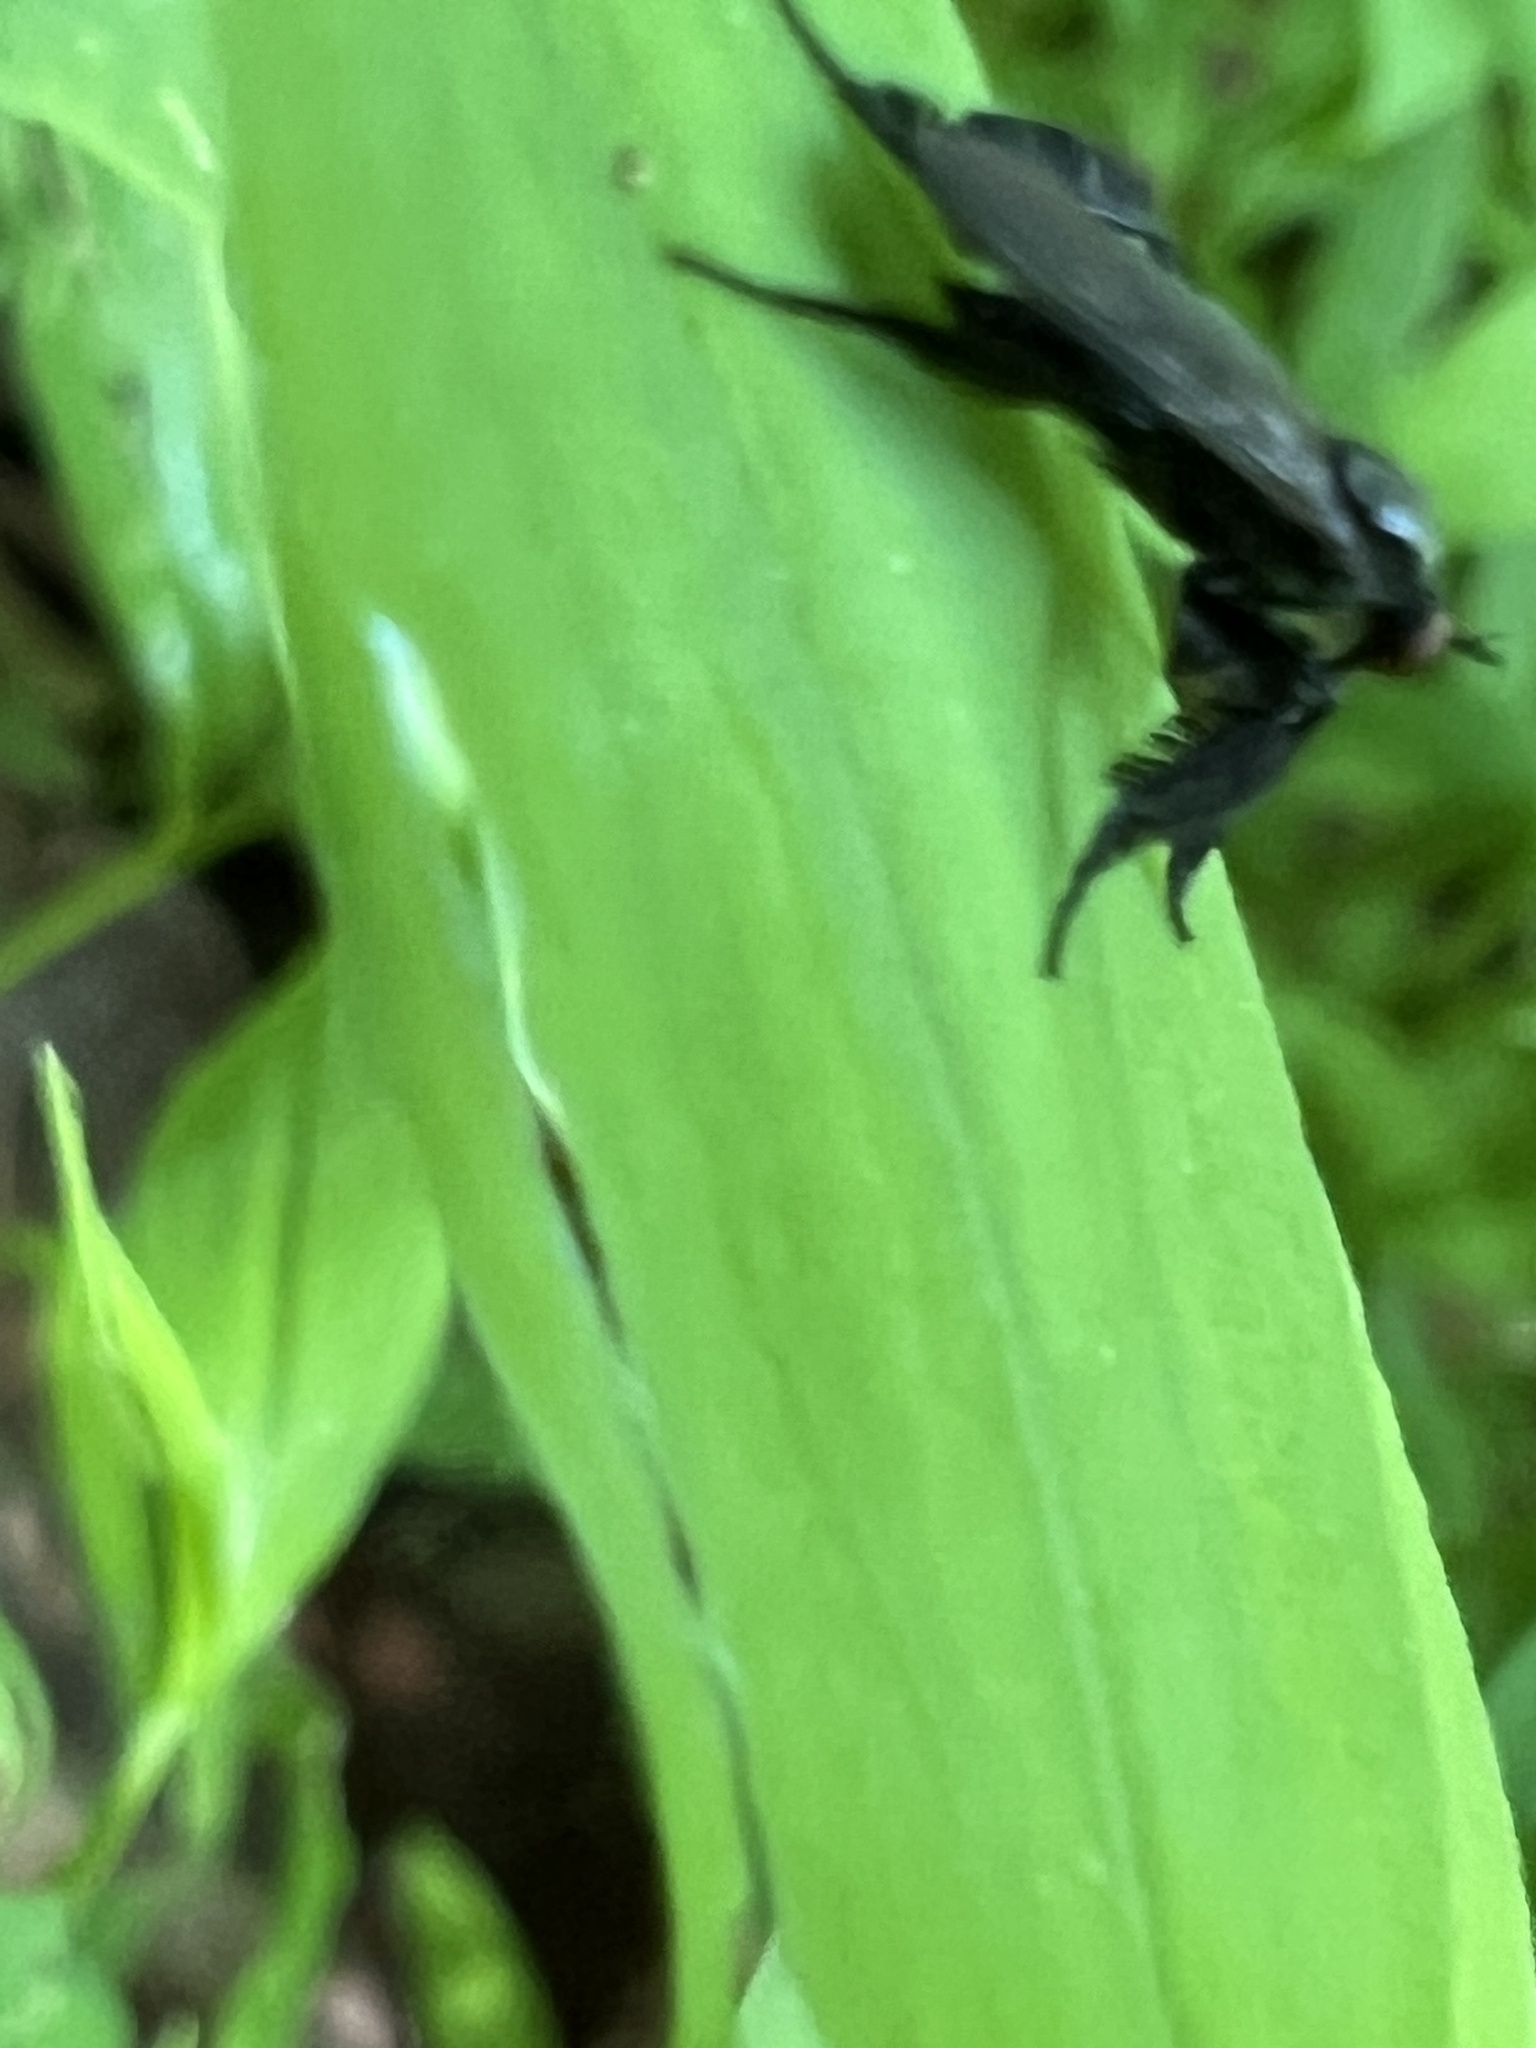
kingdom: Animalia
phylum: Arthropoda
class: Insecta
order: Diptera
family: Empididae
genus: Rhamphomyia
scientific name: Rhamphomyia longicauda
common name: Long-tailed dance fly
